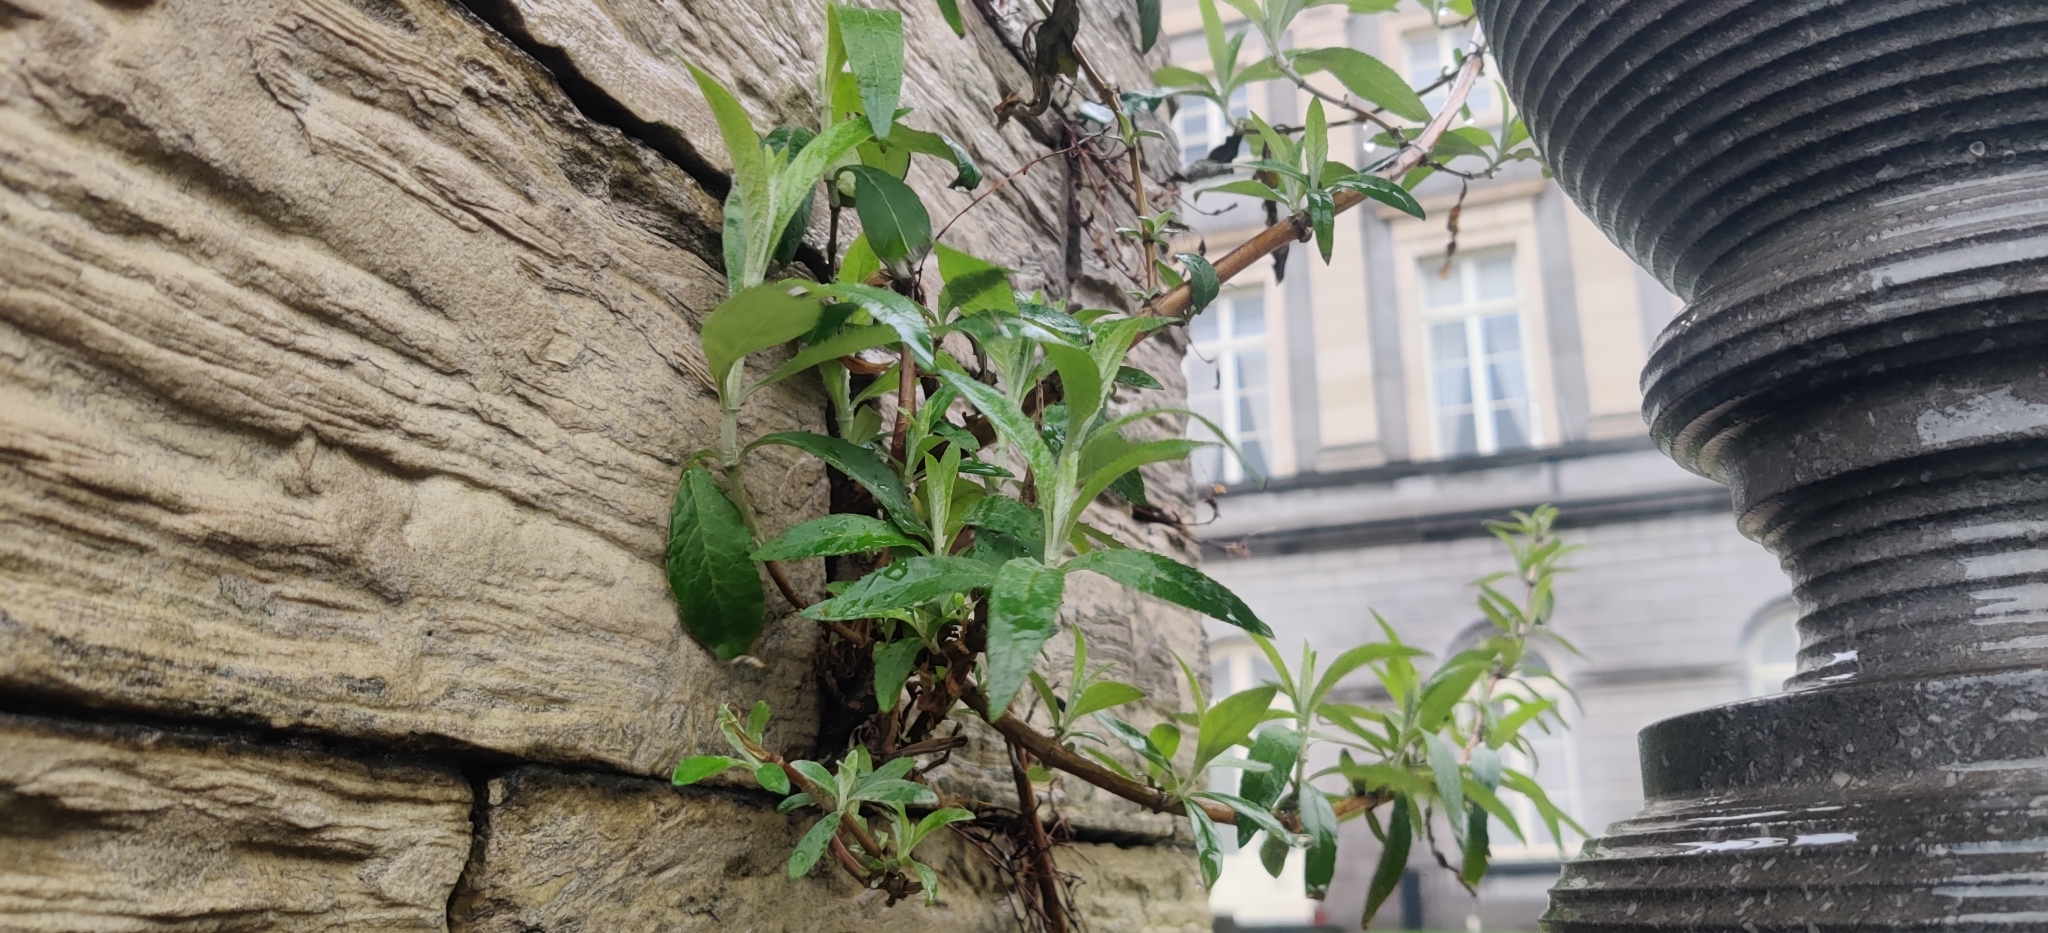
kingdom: Plantae
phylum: Tracheophyta
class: Magnoliopsida
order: Lamiales
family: Scrophulariaceae
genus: Buddleja
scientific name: Buddleja davidii
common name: Butterfly-bush
